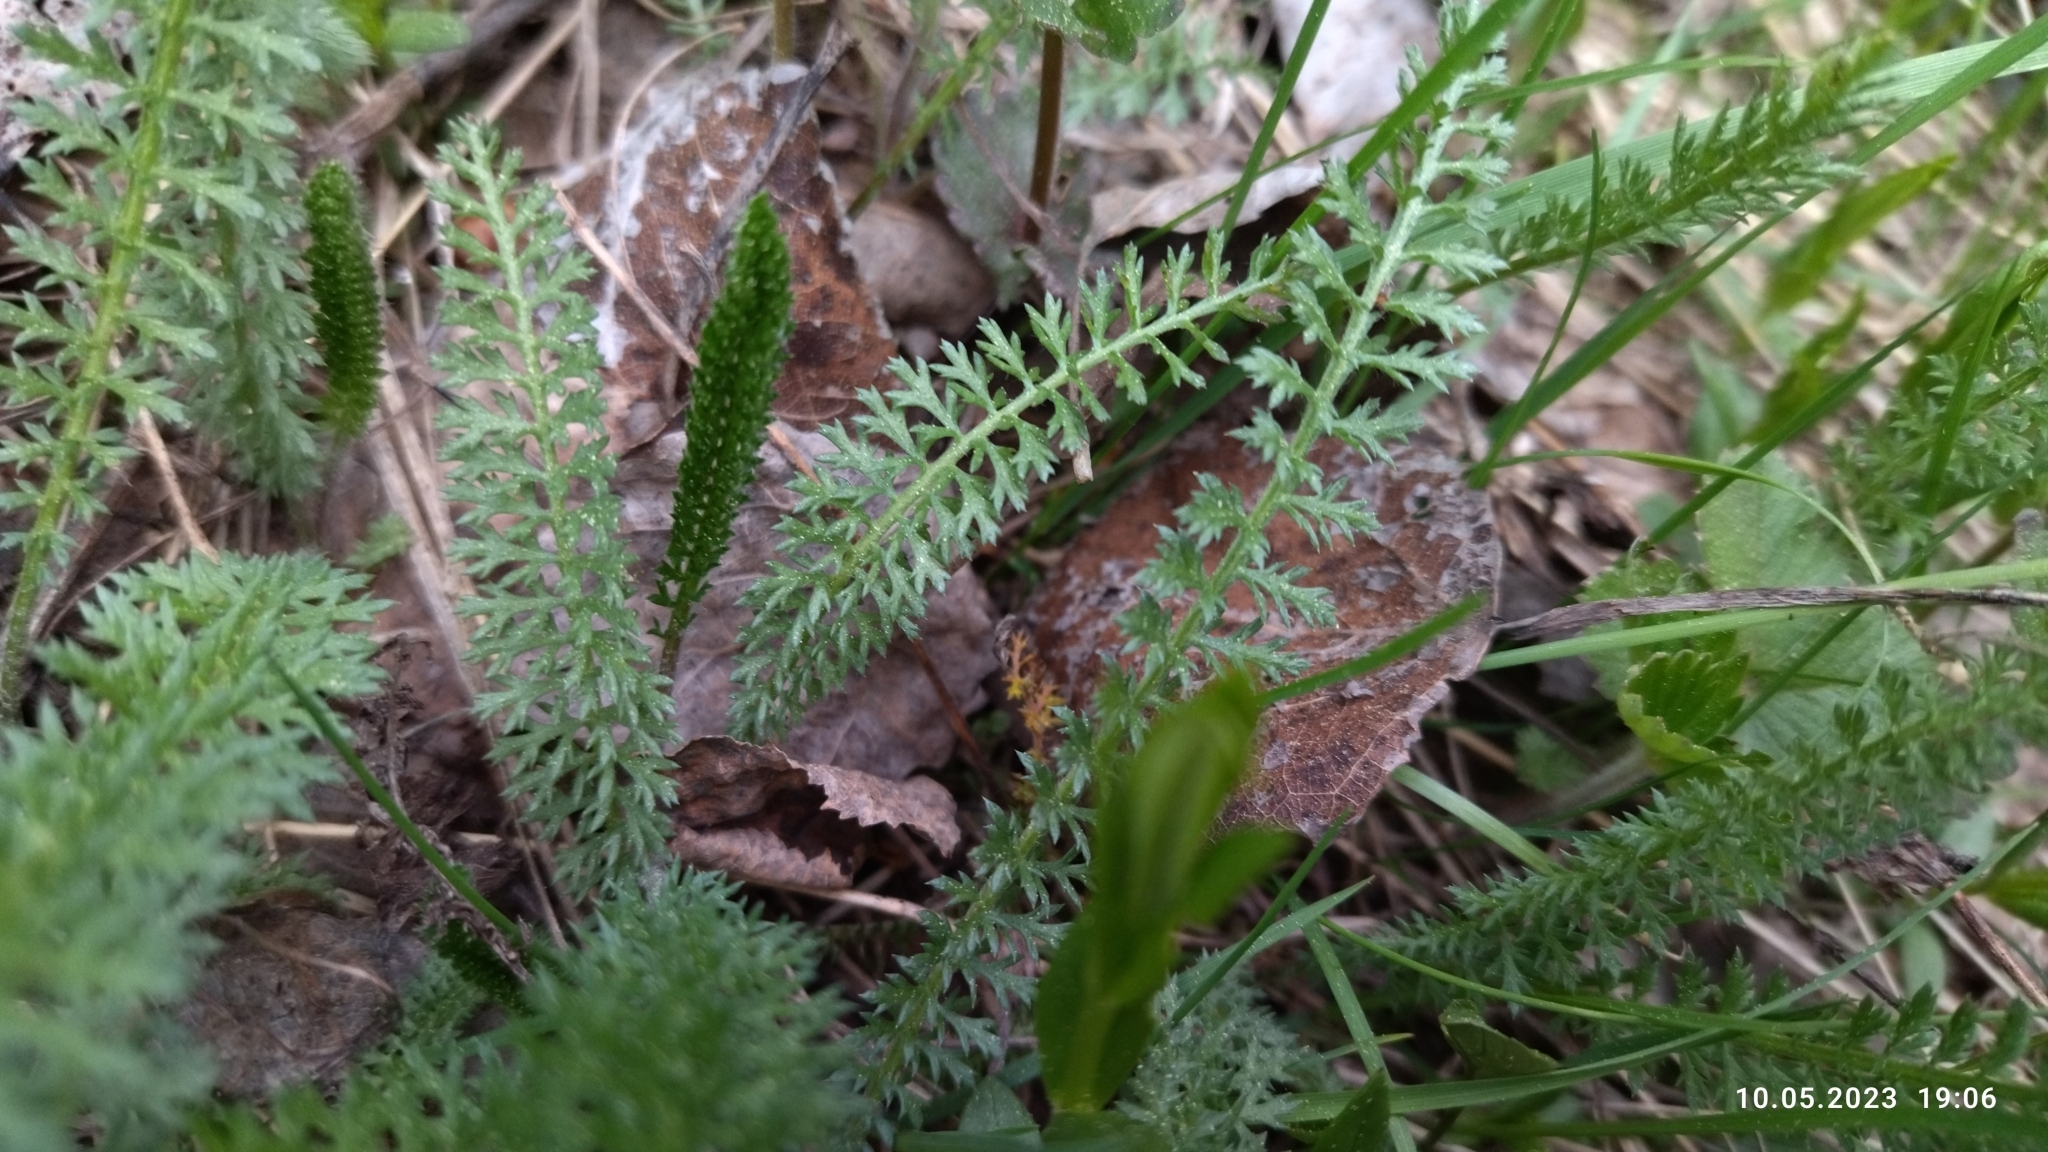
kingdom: Plantae
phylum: Tracheophyta
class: Magnoliopsida
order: Asterales
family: Asteraceae
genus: Achillea
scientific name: Achillea millefolium
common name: Yarrow
